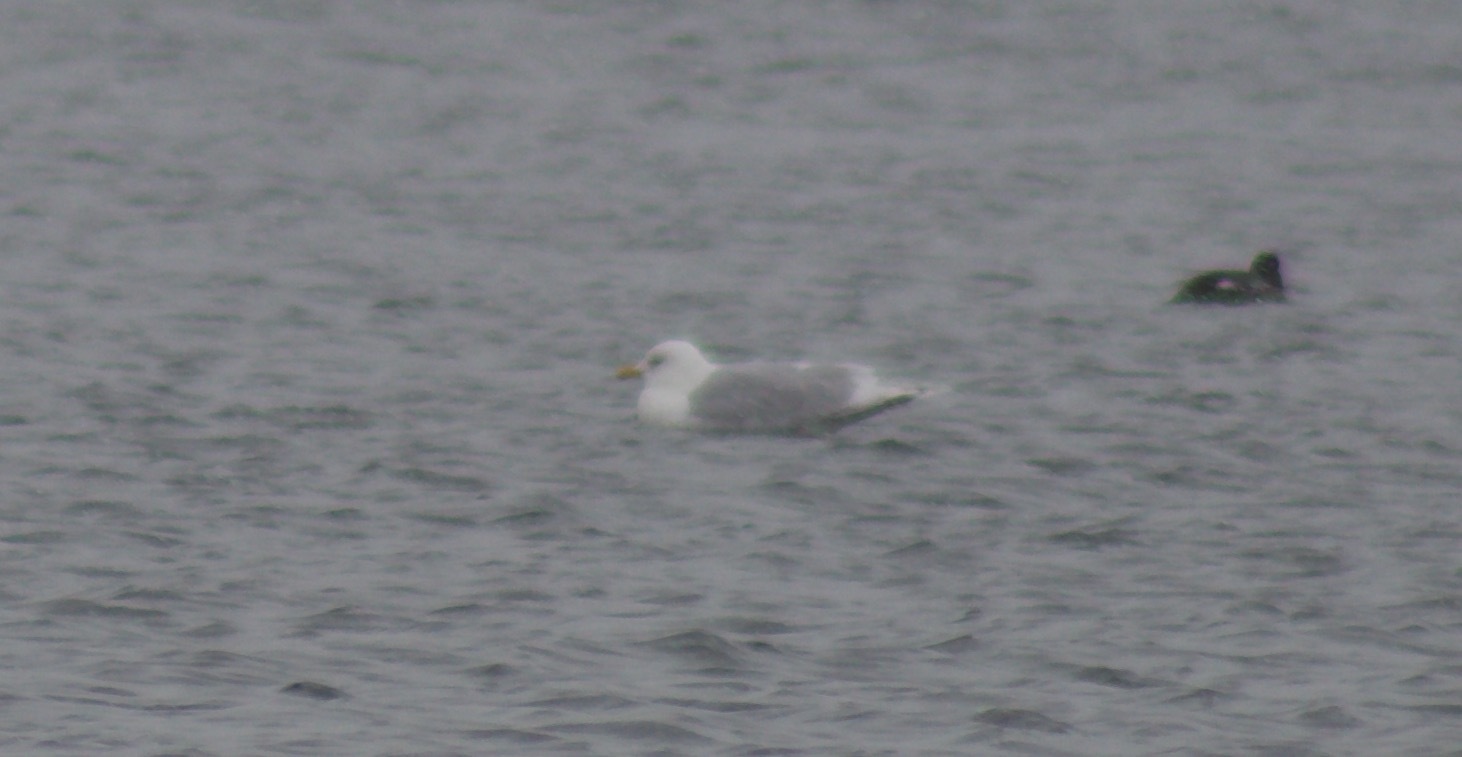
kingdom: Animalia
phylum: Chordata
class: Aves
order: Charadriiformes
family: Laridae
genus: Larus
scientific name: Larus glaucoides
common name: Iceland gull
